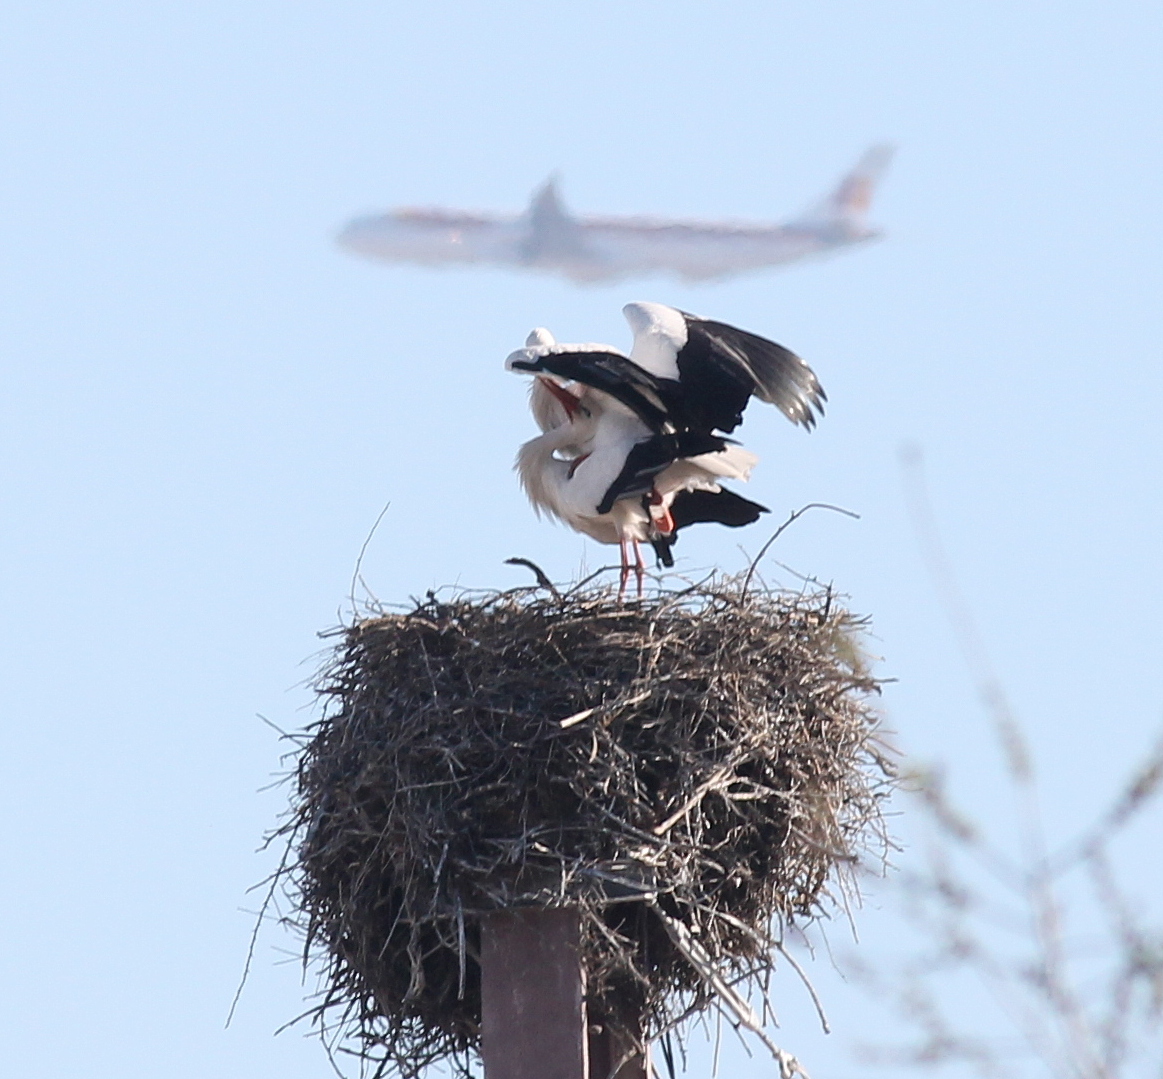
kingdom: Animalia
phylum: Chordata
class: Aves
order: Ciconiiformes
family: Ciconiidae
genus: Ciconia
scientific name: Ciconia ciconia
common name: White stork
